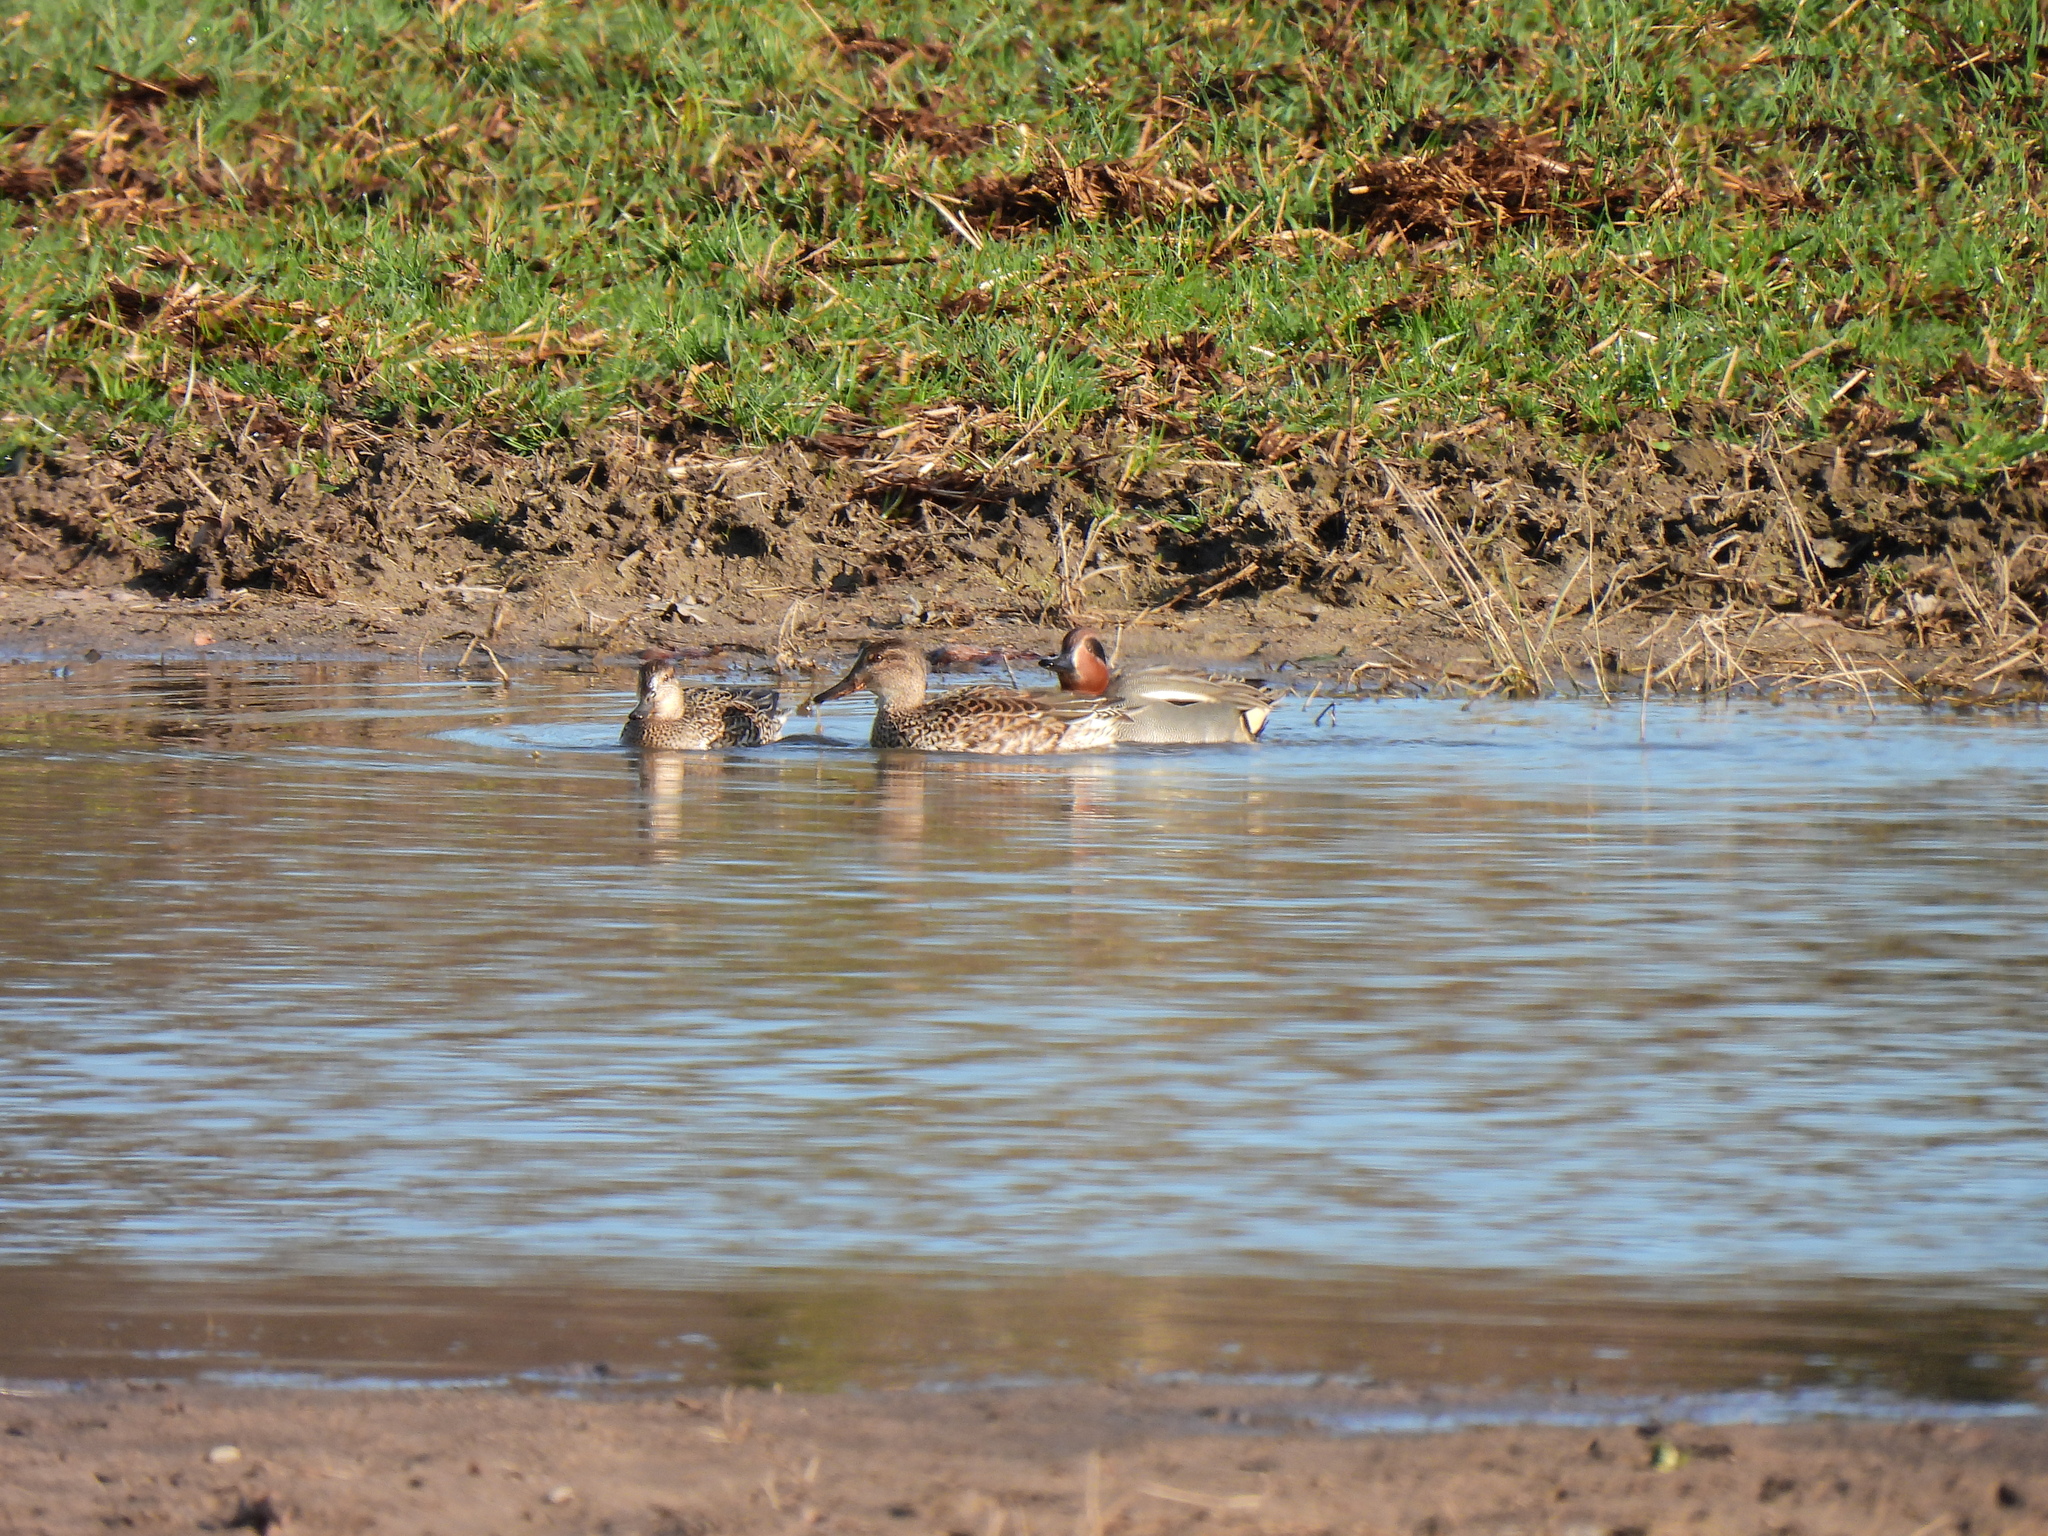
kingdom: Animalia
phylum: Chordata
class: Aves
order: Anseriformes
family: Anatidae
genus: Anas
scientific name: Anas crecca
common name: Eurasian teal
